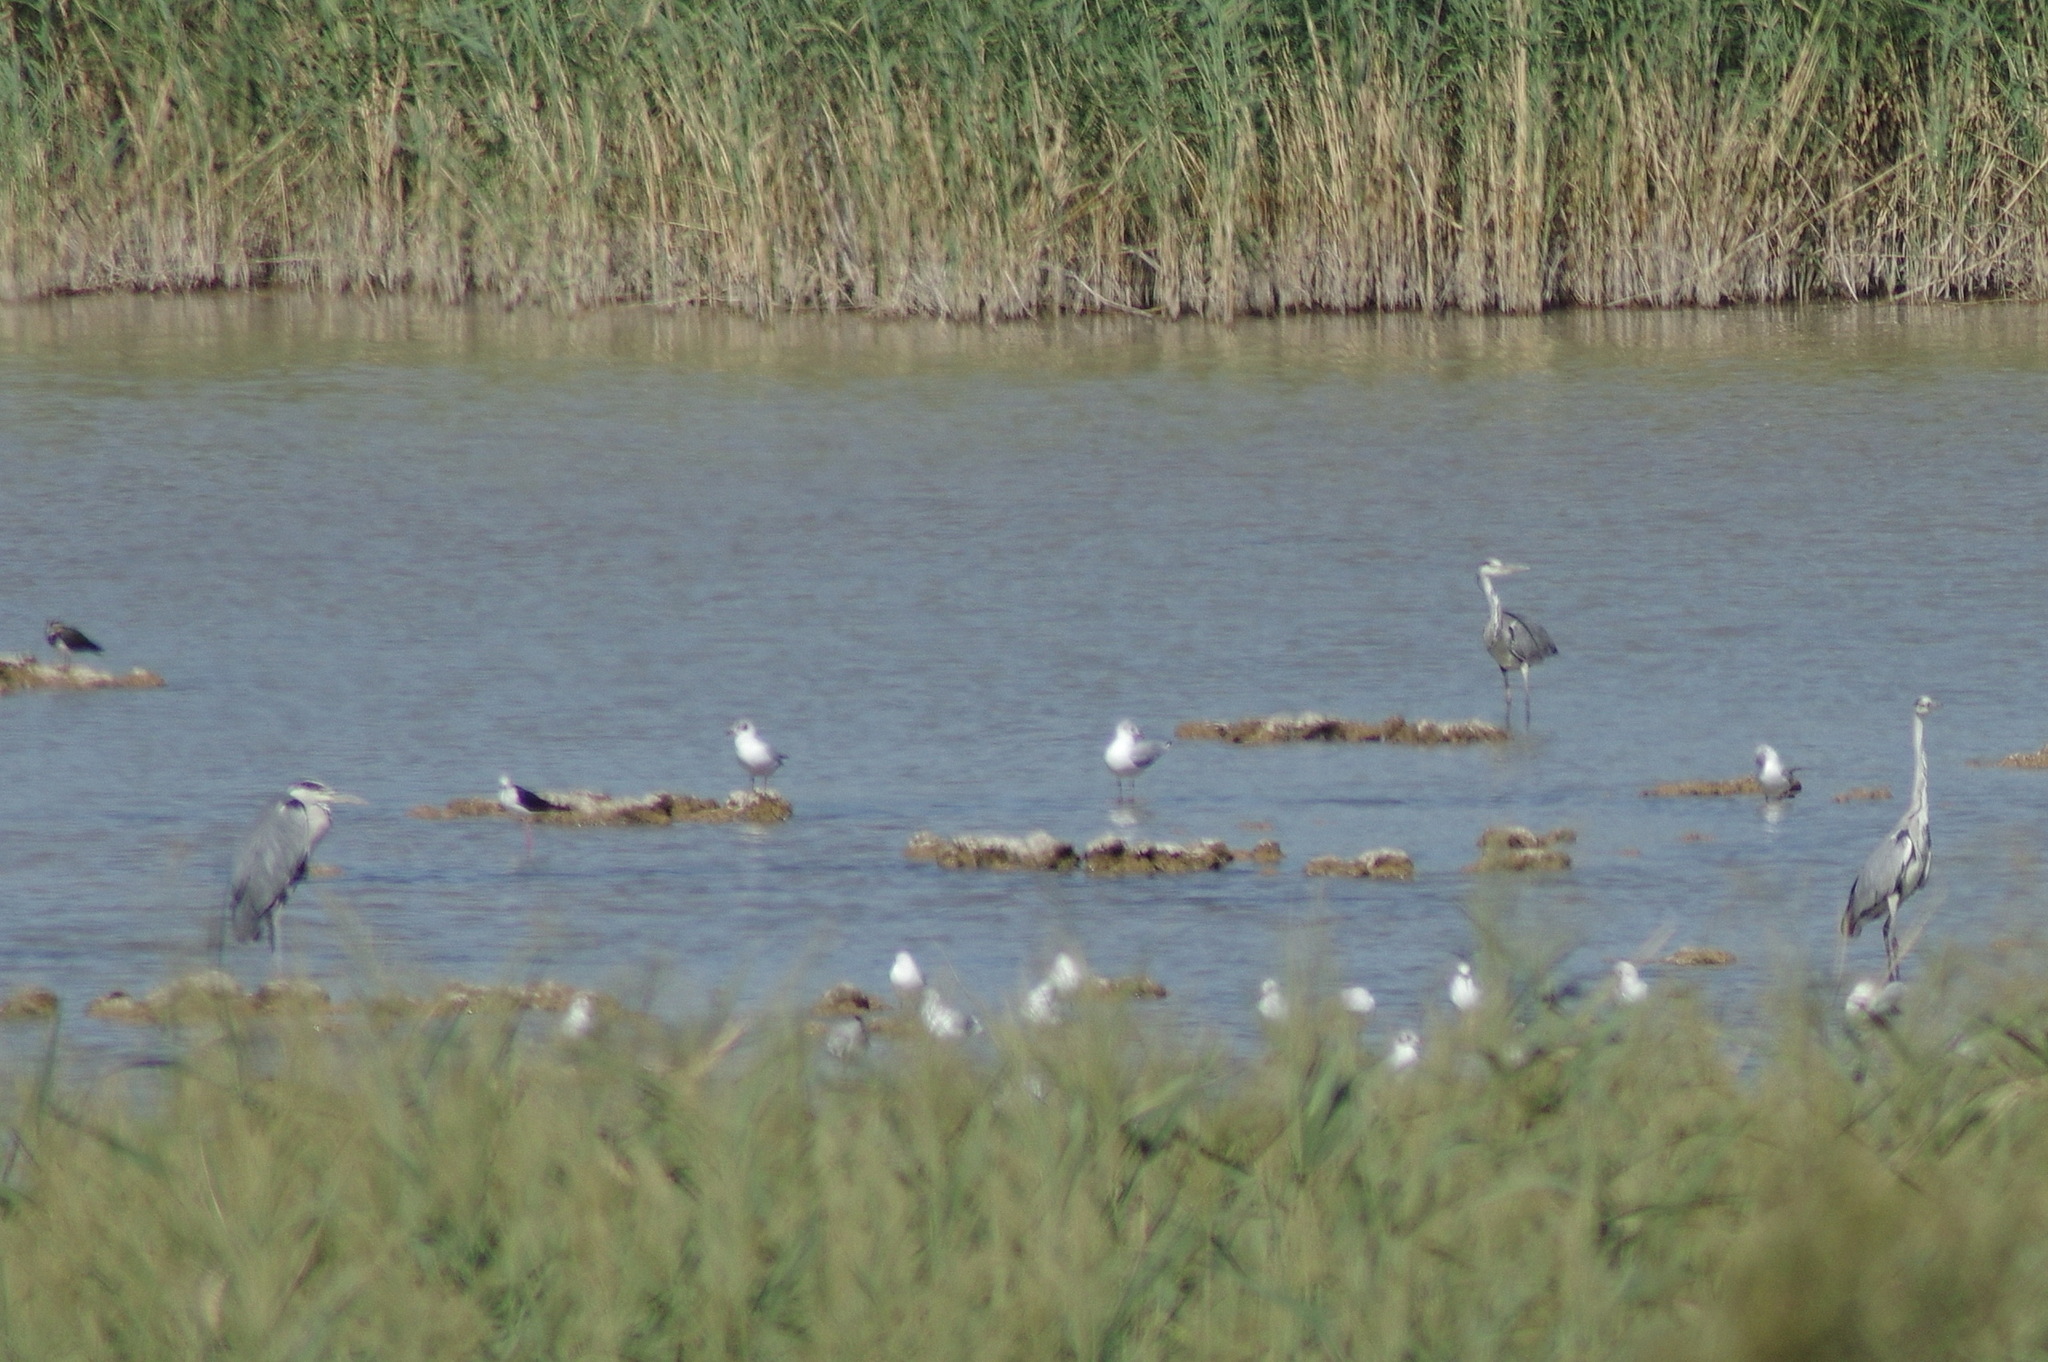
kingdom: Animalia
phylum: Chordata
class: Aves
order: Pelecaniformes
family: Ardeidae
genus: Ardea
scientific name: Ardea cinerea
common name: Grey heron
